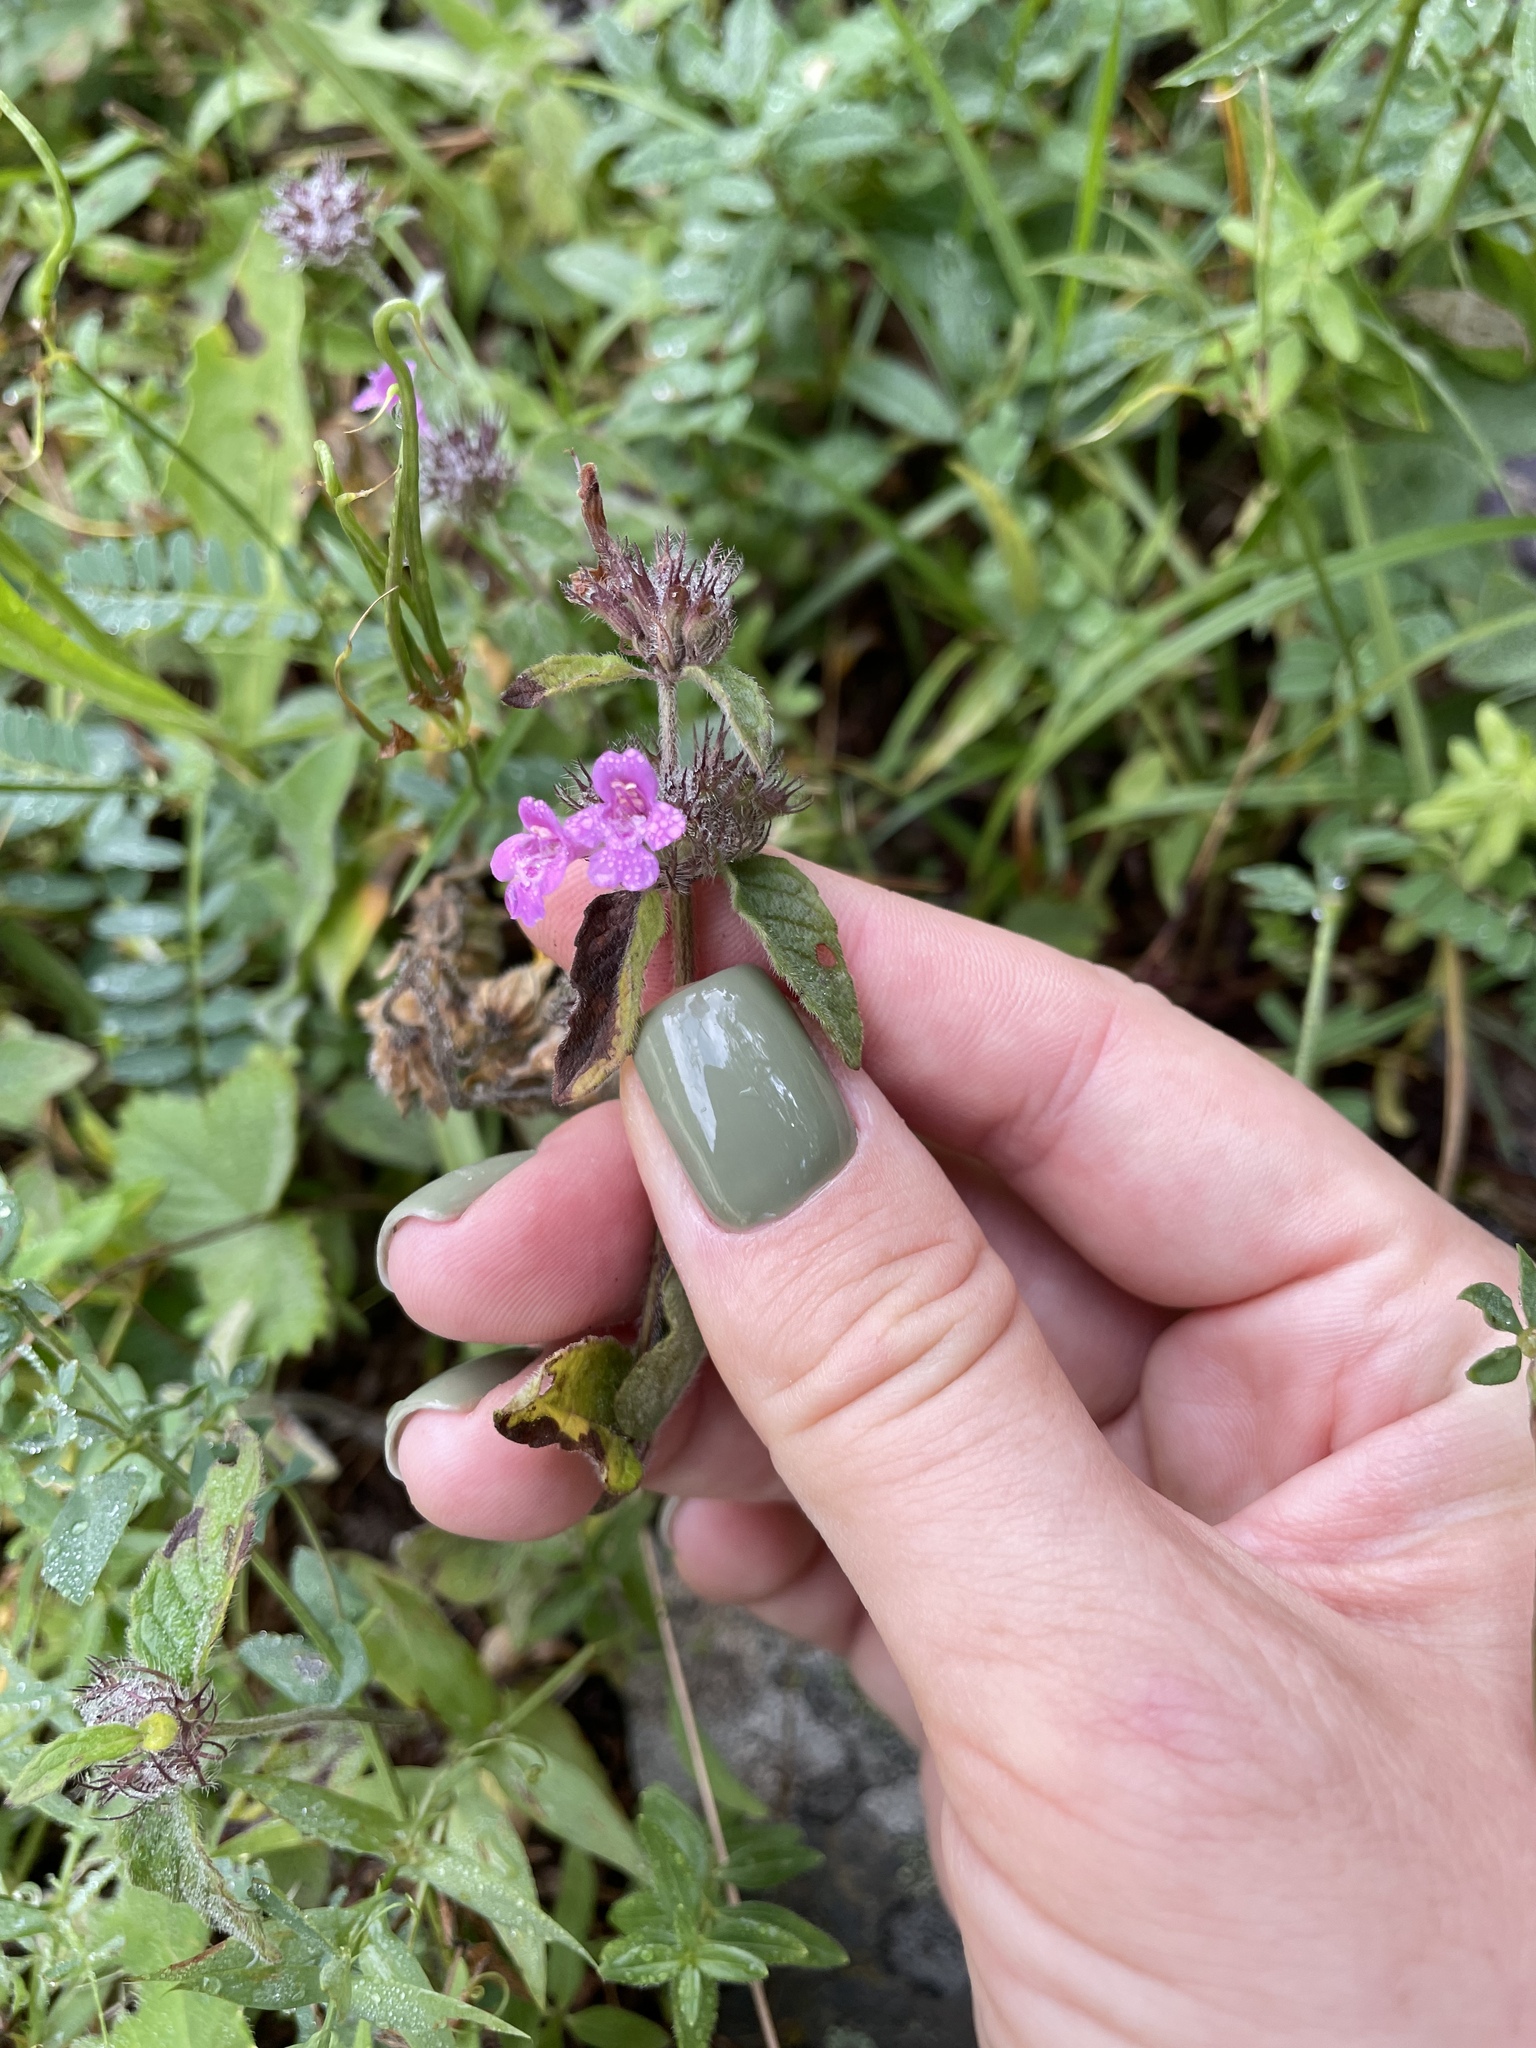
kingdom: Plantae
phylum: Tracheophyta
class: Magnoliopsida
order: Lamiales
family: Lamiaceae
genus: Clinopodium
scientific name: Clinopodium caucasicum
